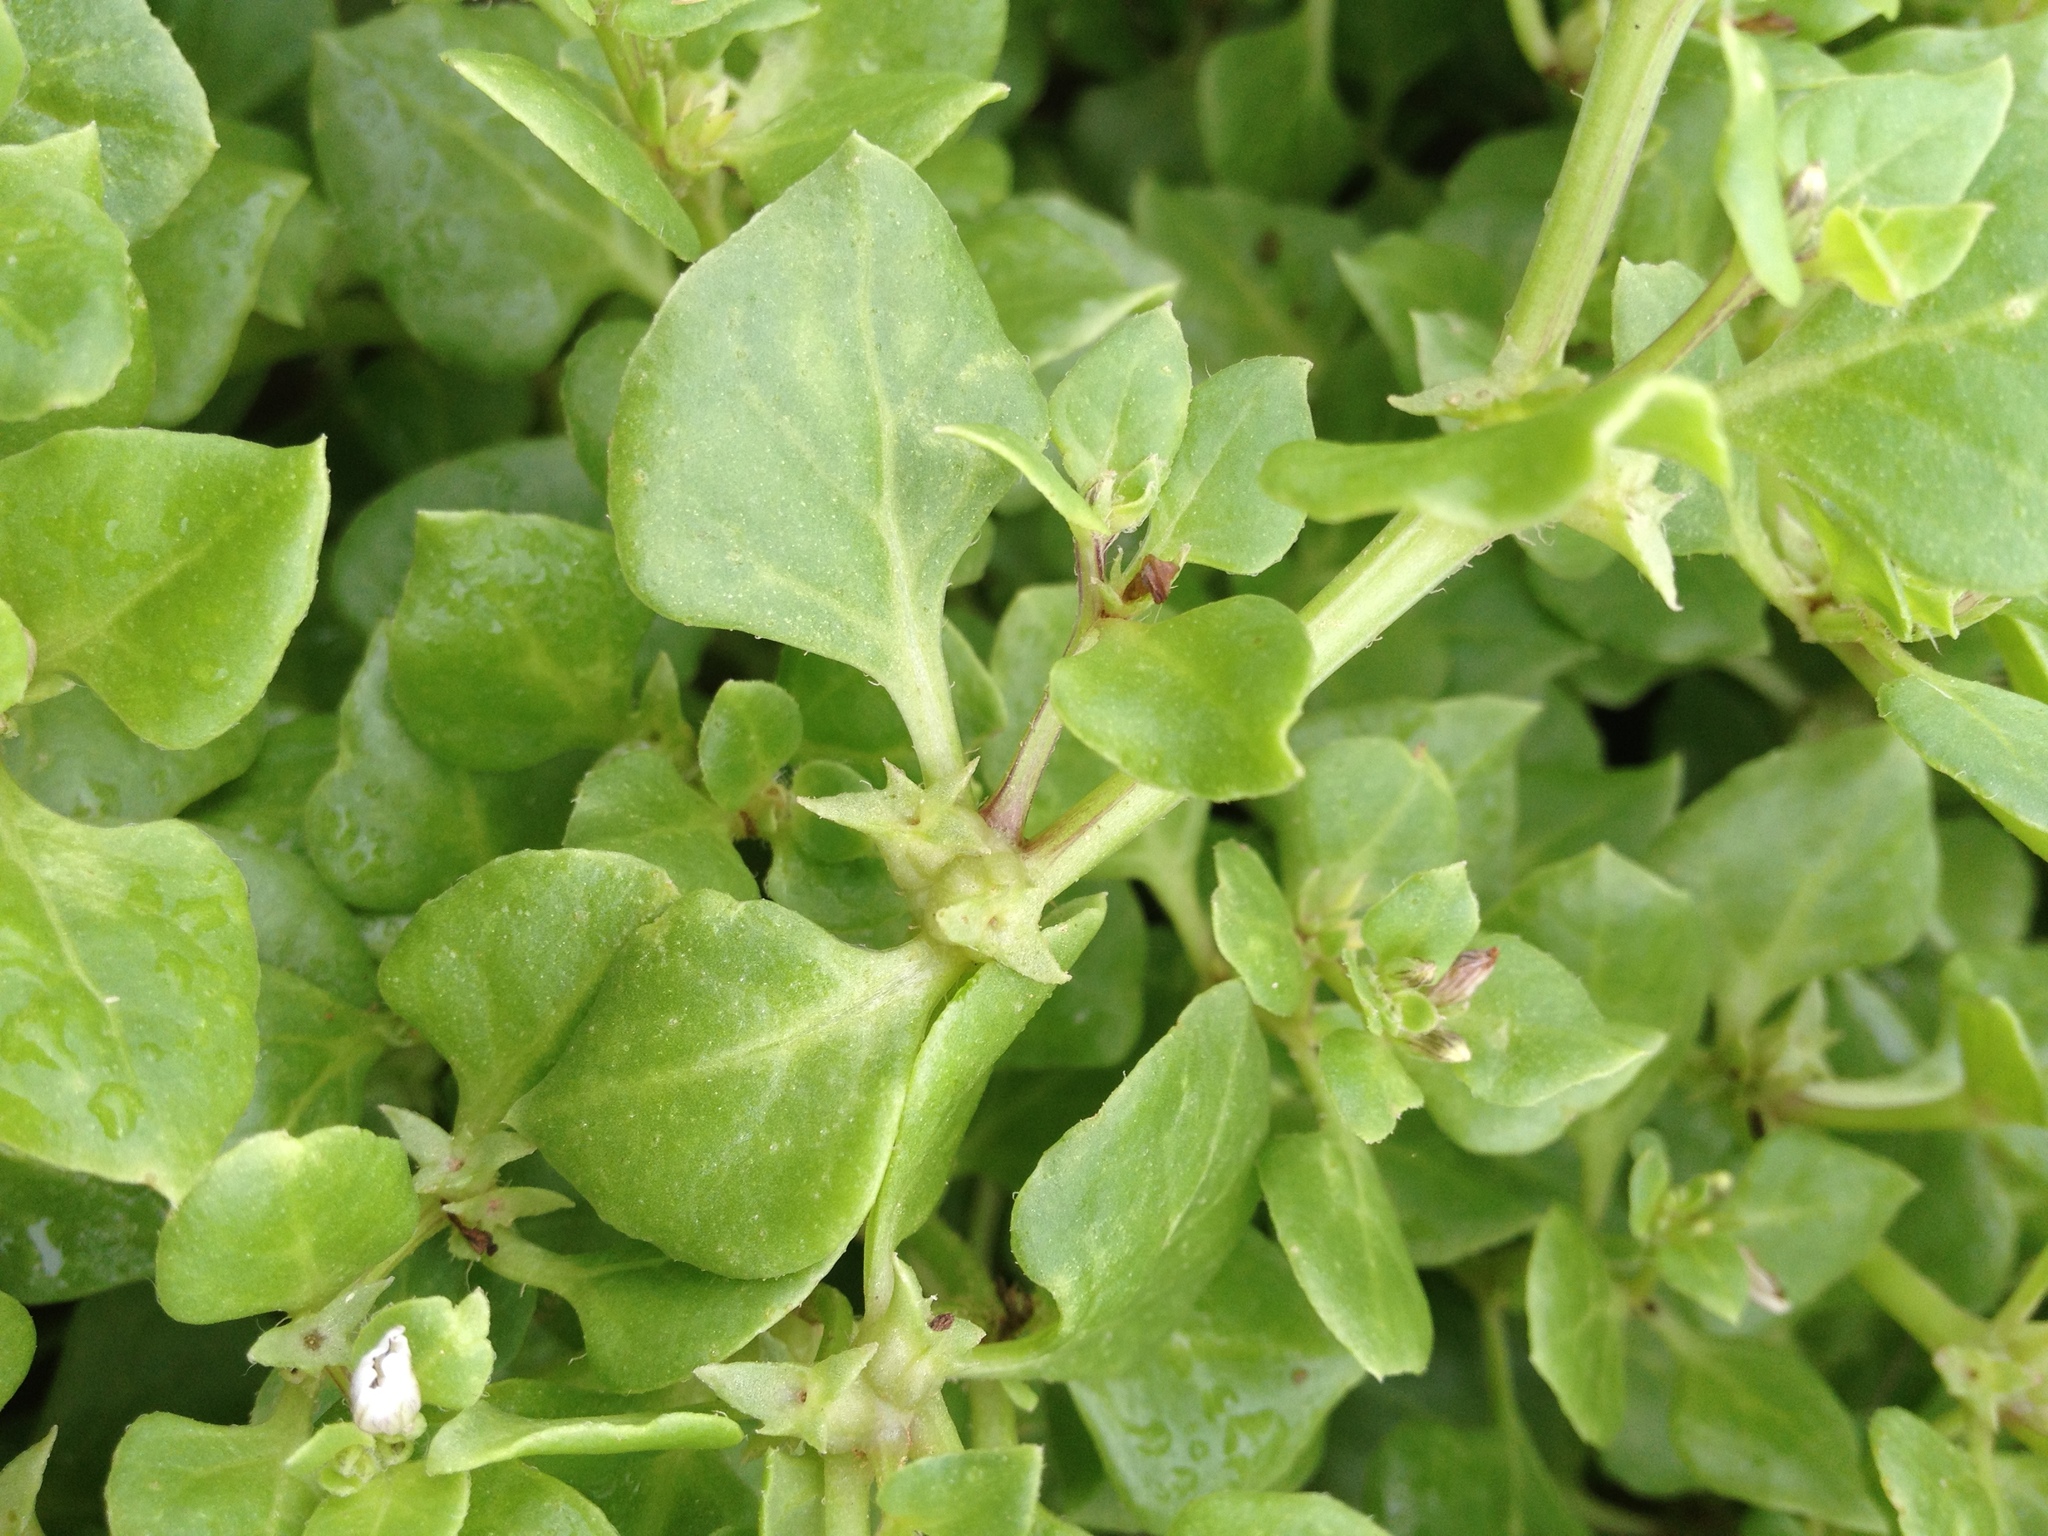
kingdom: Plantae
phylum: Tracheophyta
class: Magnoliopsida
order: Solanales
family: Solanaceae
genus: Sclerophylax
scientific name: Sclerophylax spinescens
